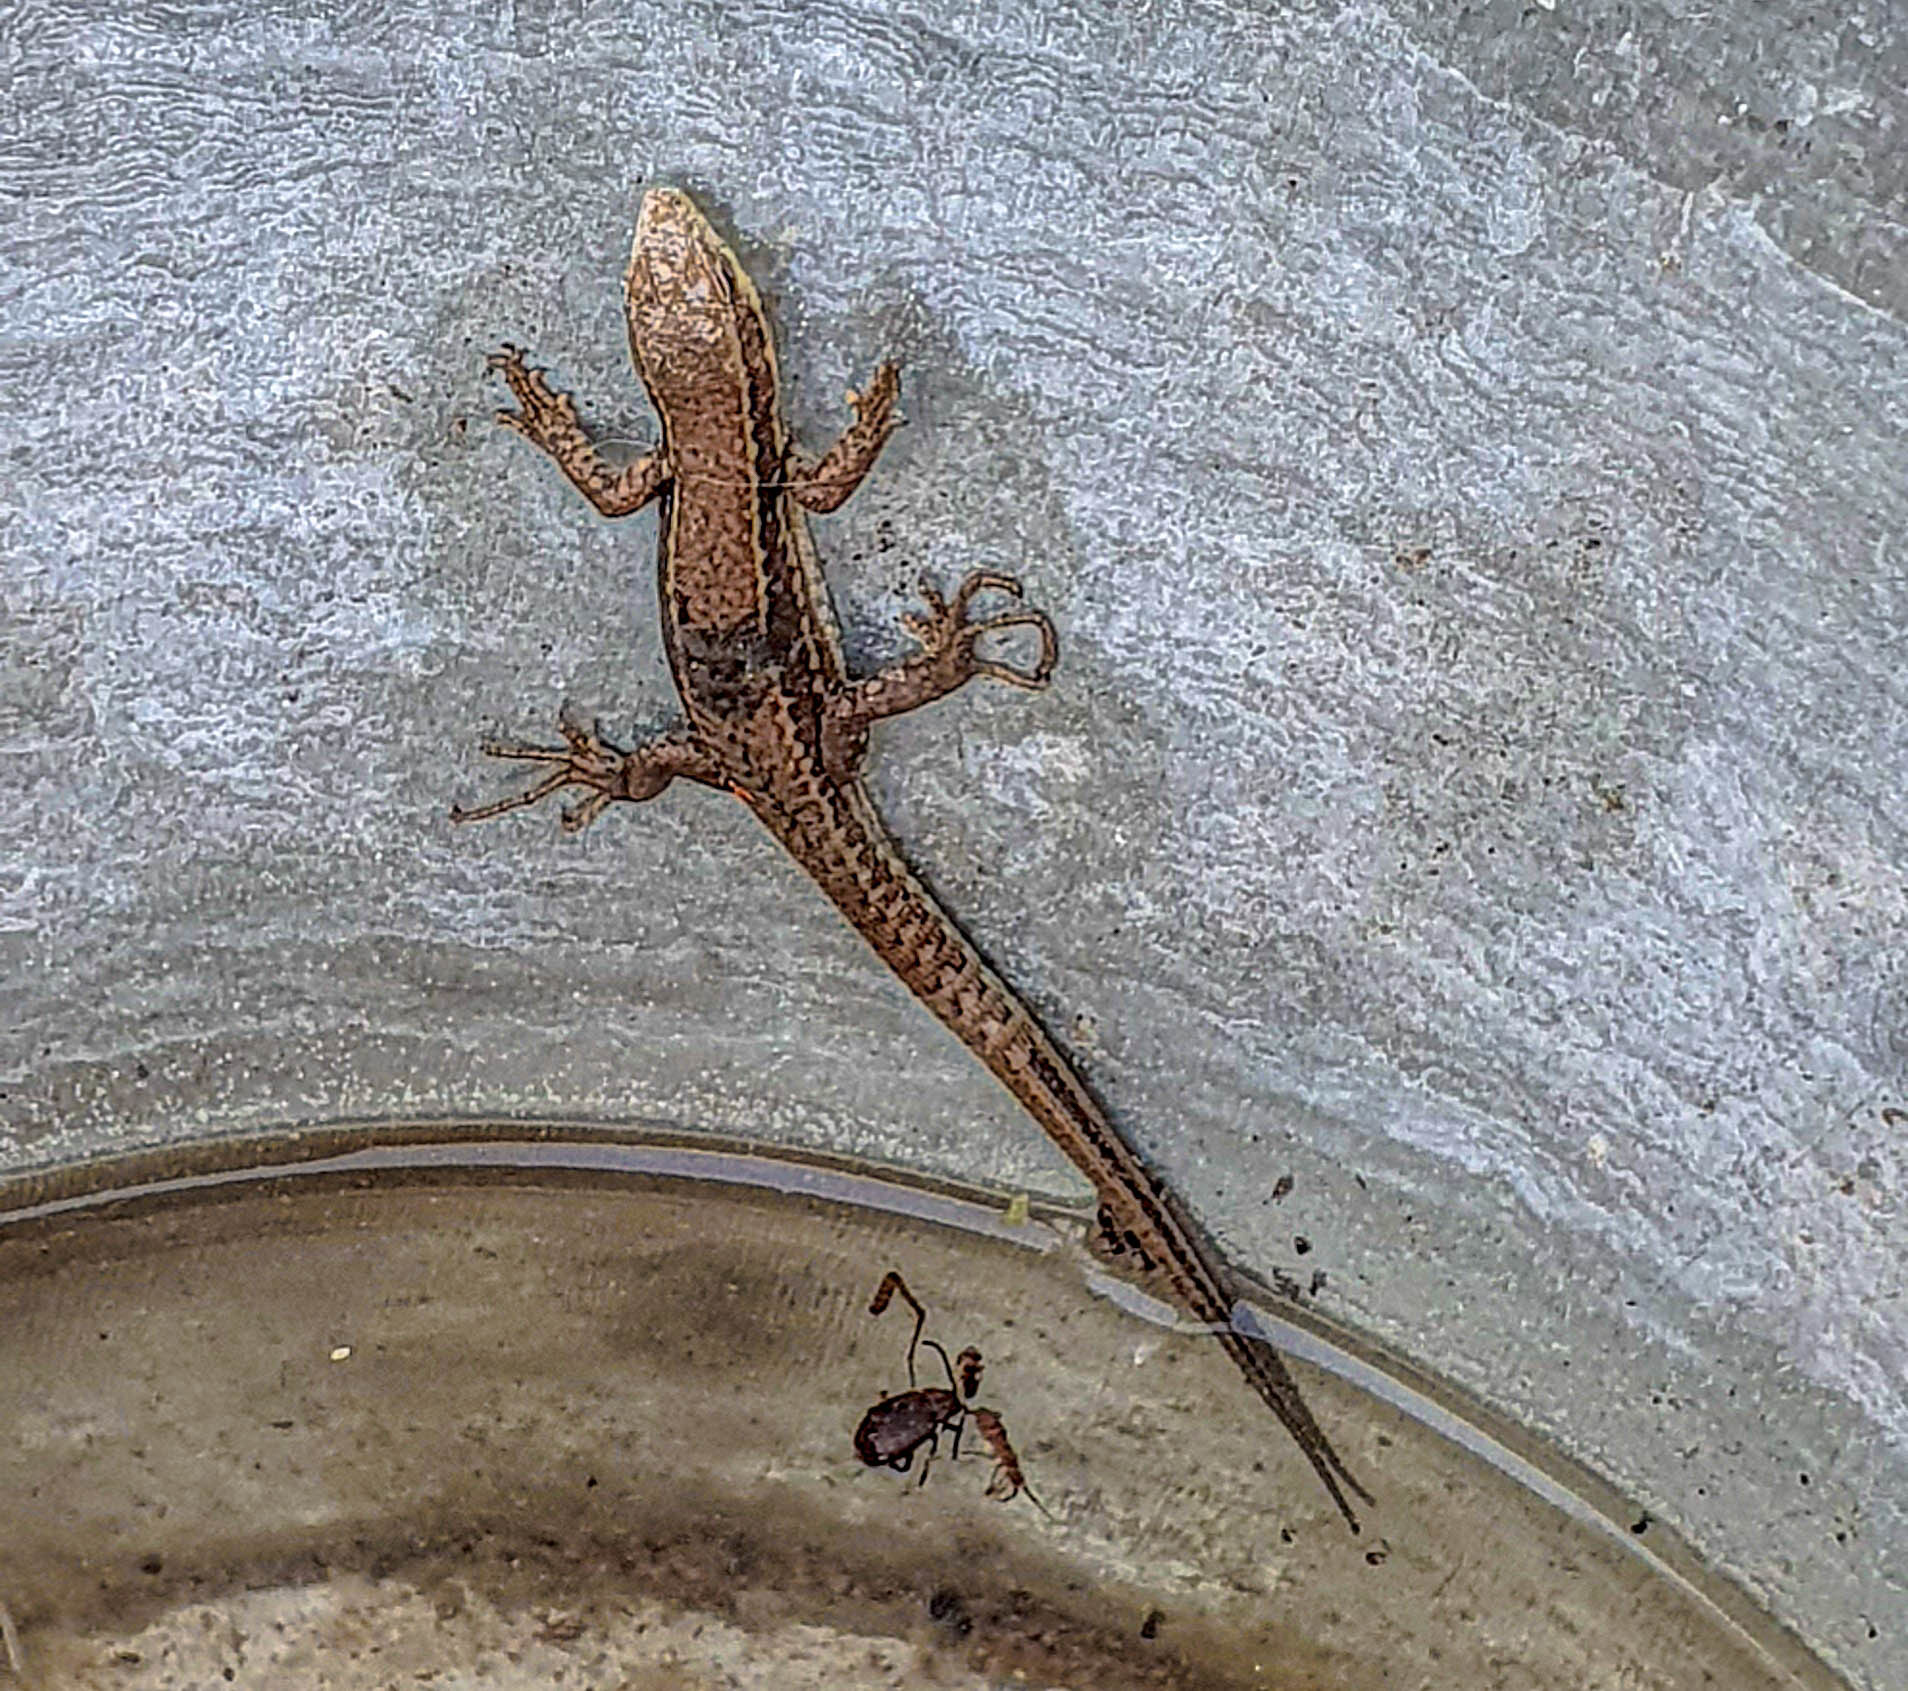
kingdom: Animalia
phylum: Chordata
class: Squamata
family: Lacertidae
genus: Podarcis
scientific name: Podarcis muralis
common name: Common wall lizard
